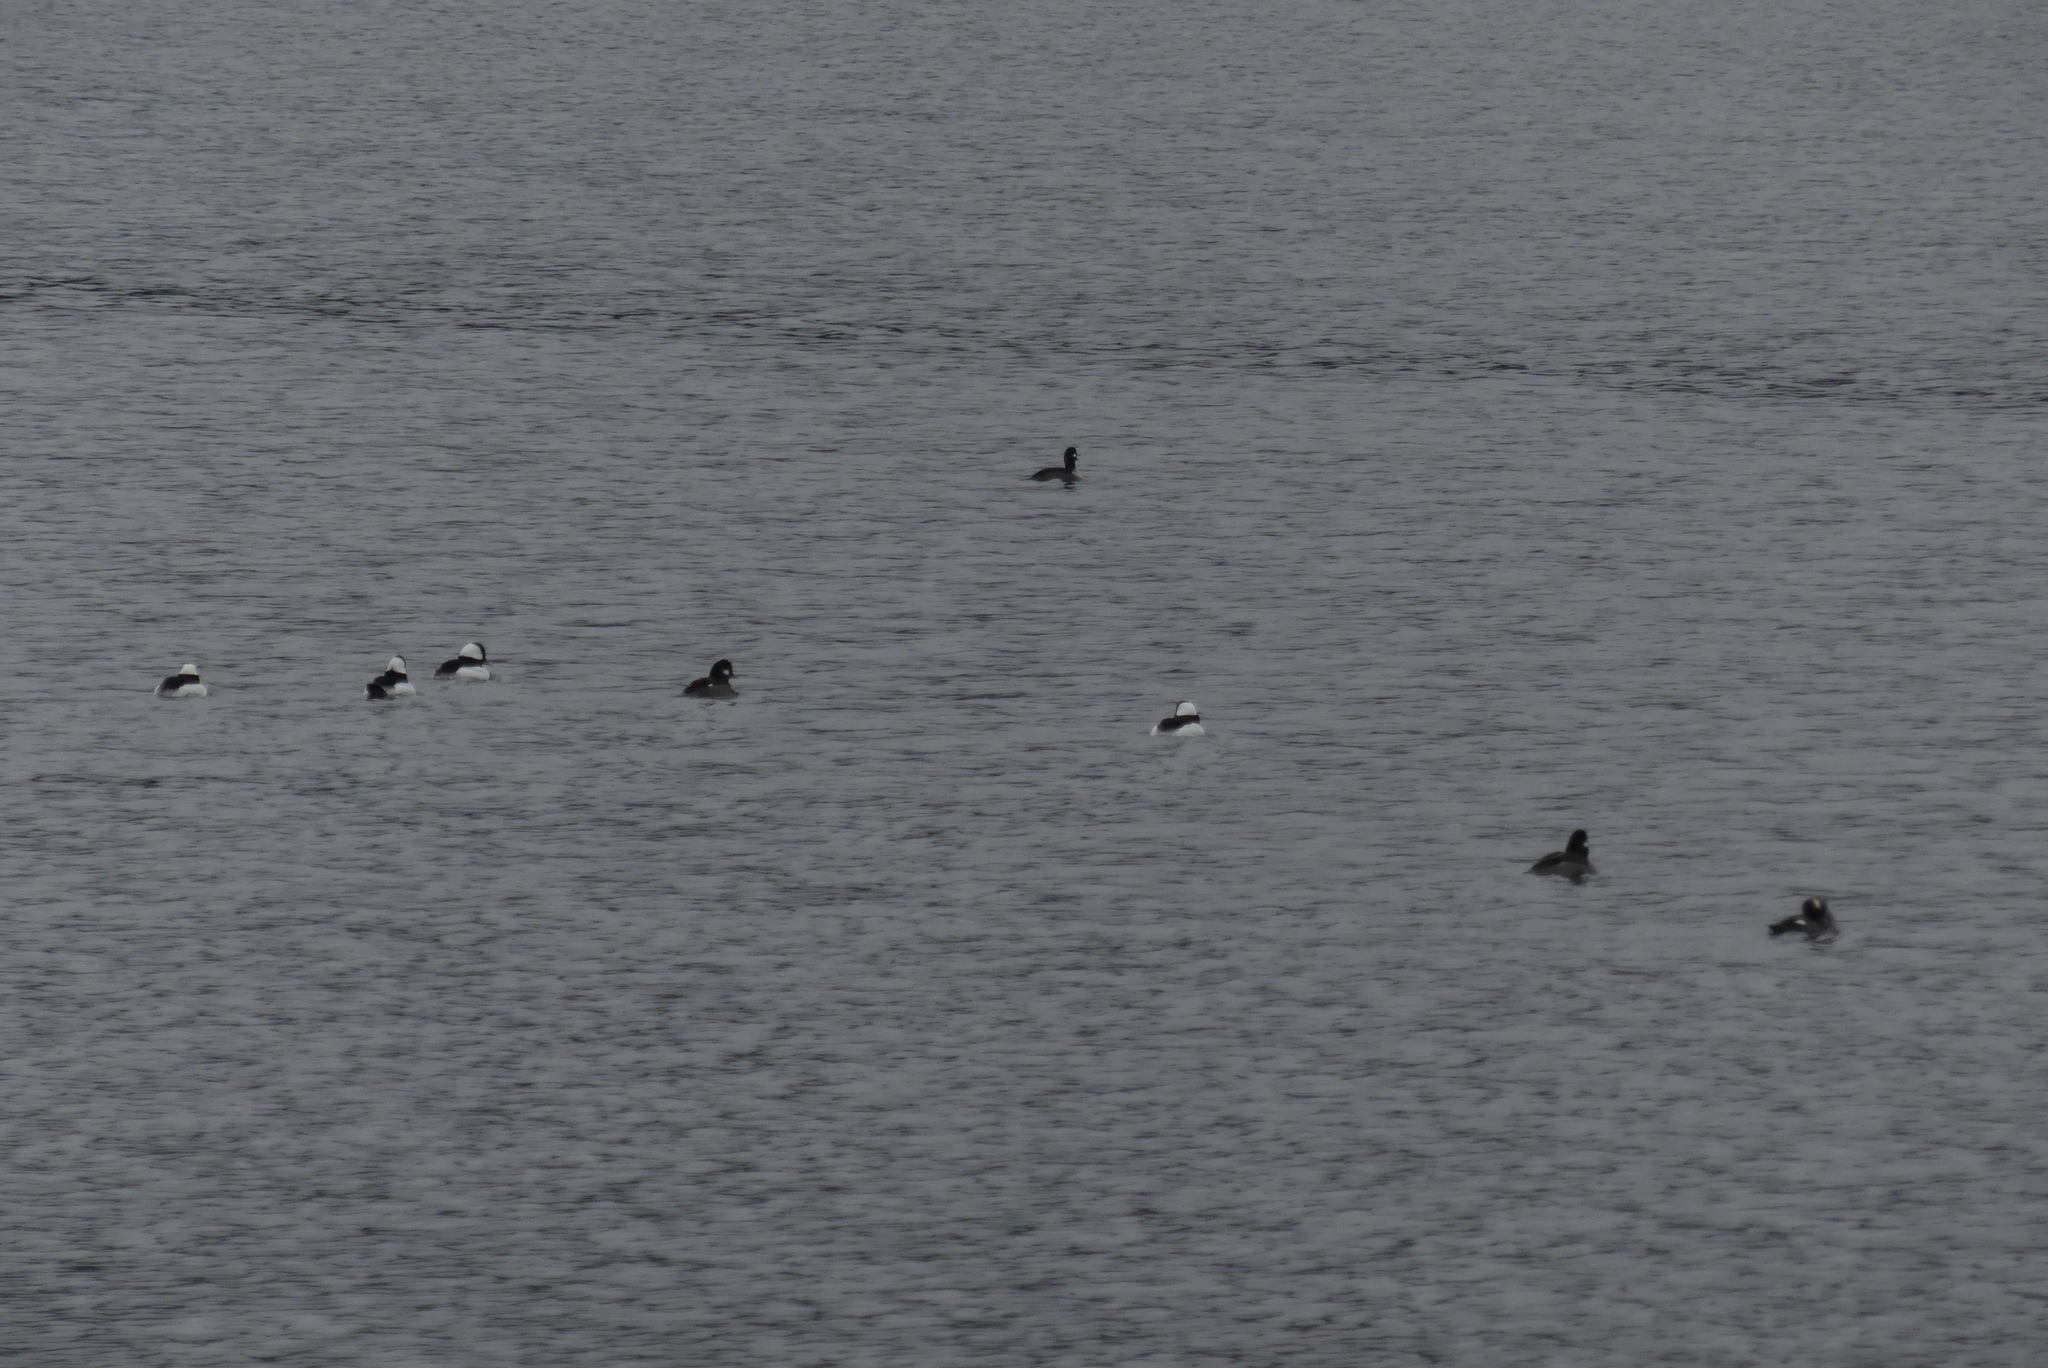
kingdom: Animalia
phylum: Chordata
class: Aves
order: Anseriformes
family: Anatidae
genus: Bucephala
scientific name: Bucephala albeola
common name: Bufflehead
